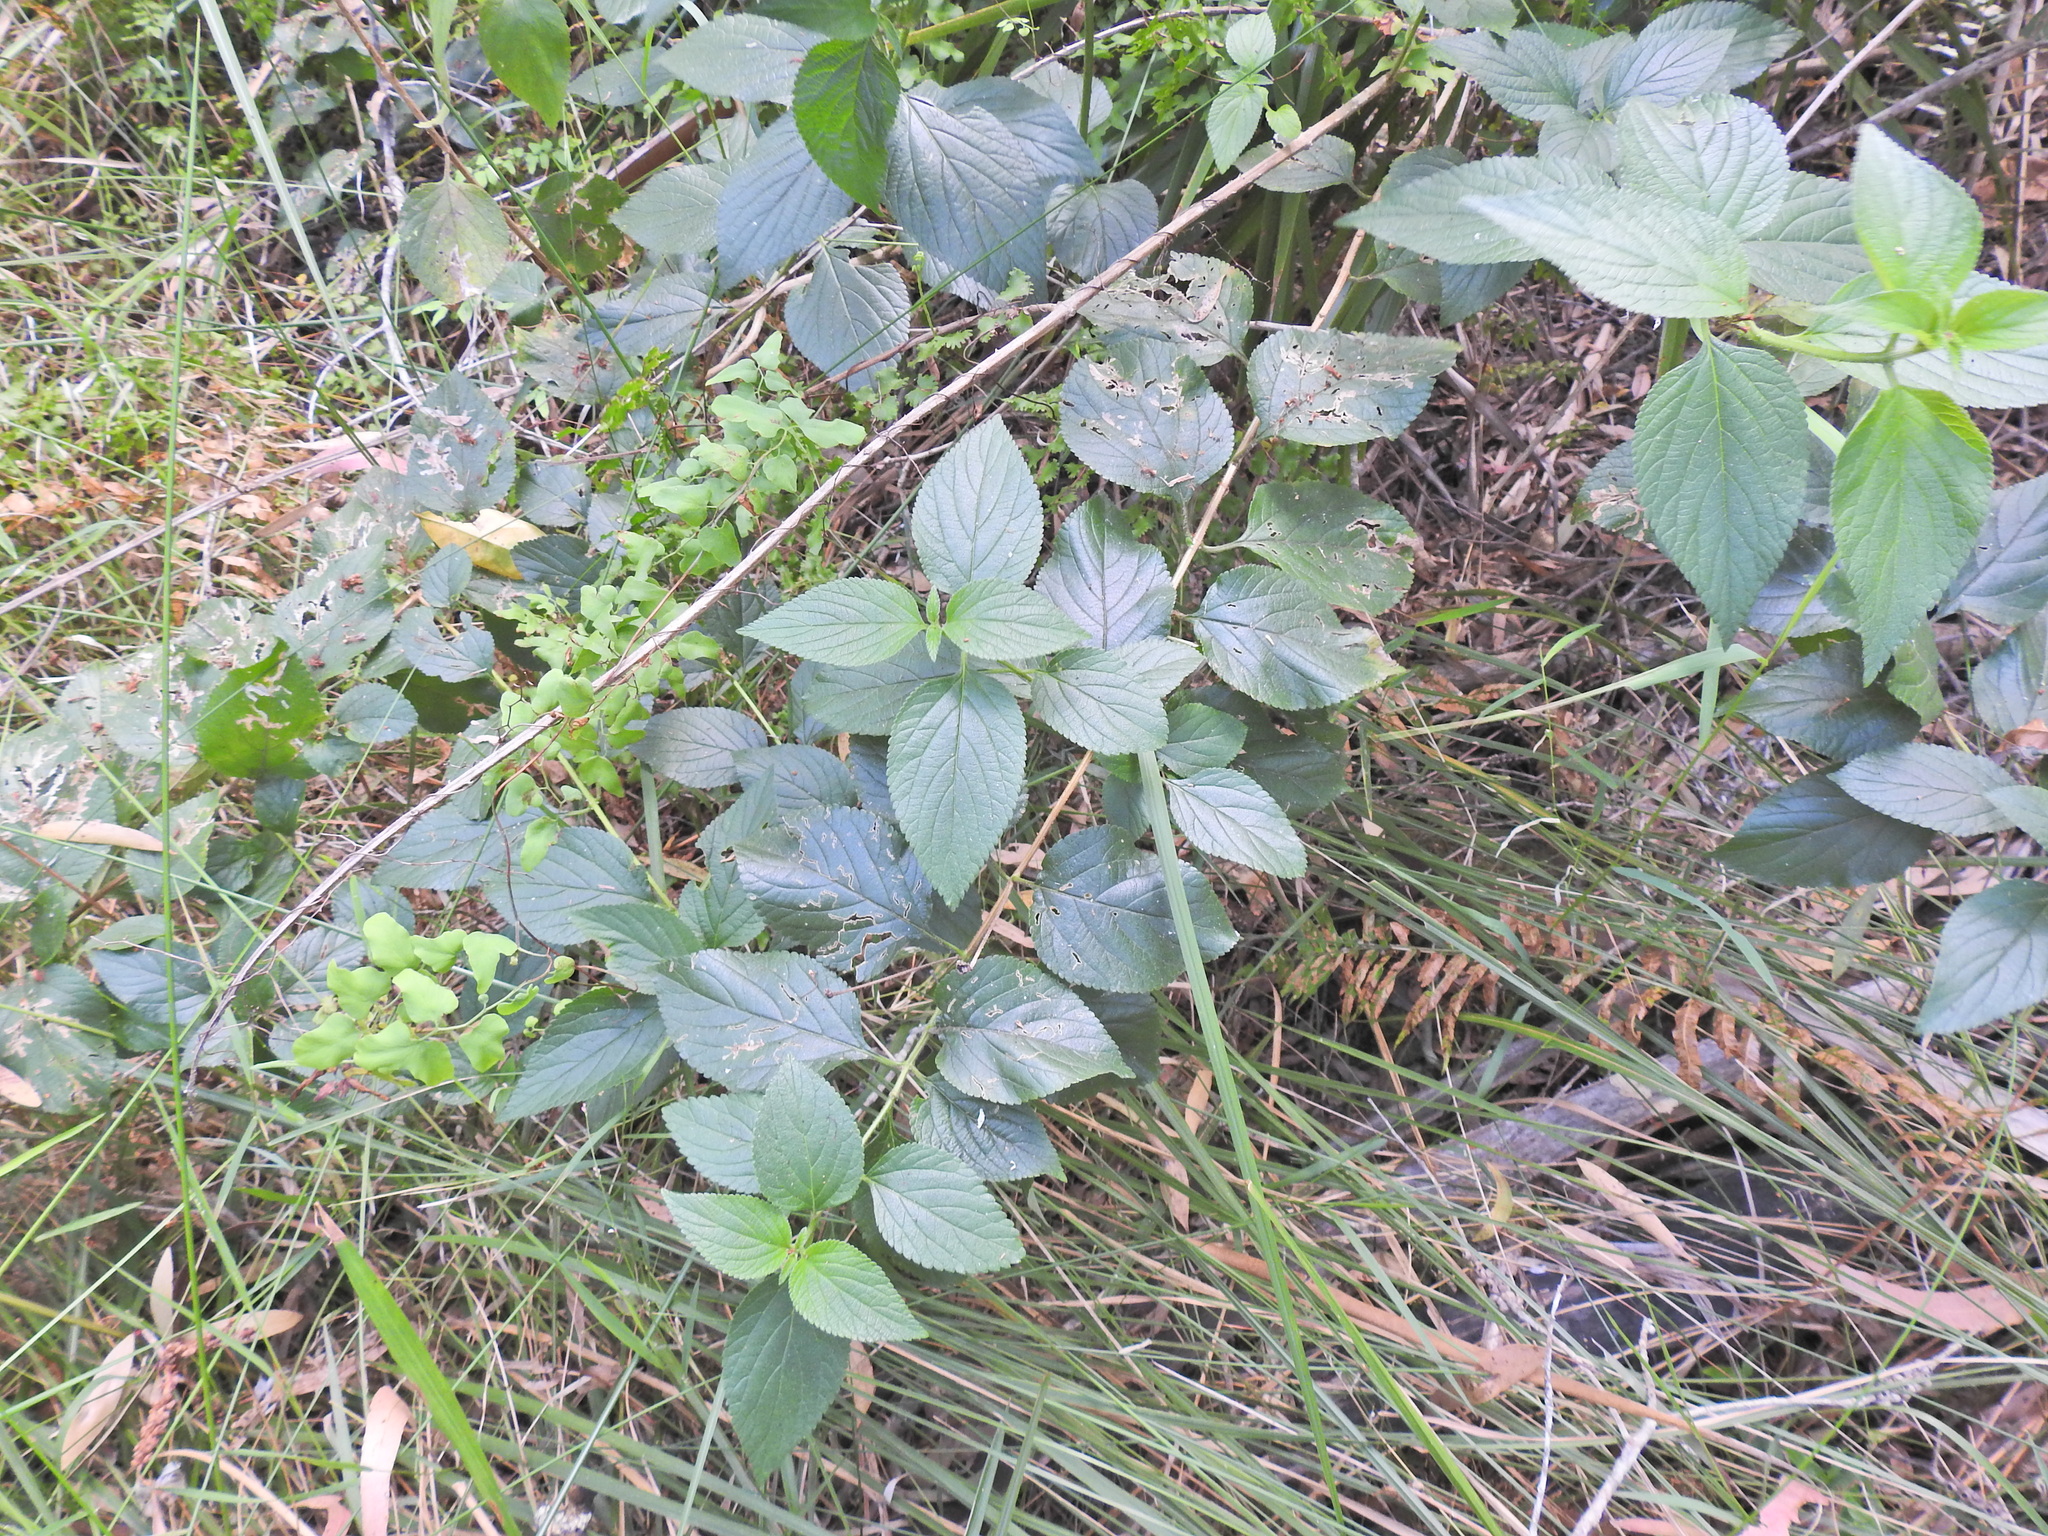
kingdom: Plantae
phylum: Tracheophyta
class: Magnoliopsida
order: Lamiales
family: Verbenaceae
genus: Lantana
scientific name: Lantana camara
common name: Lantana
